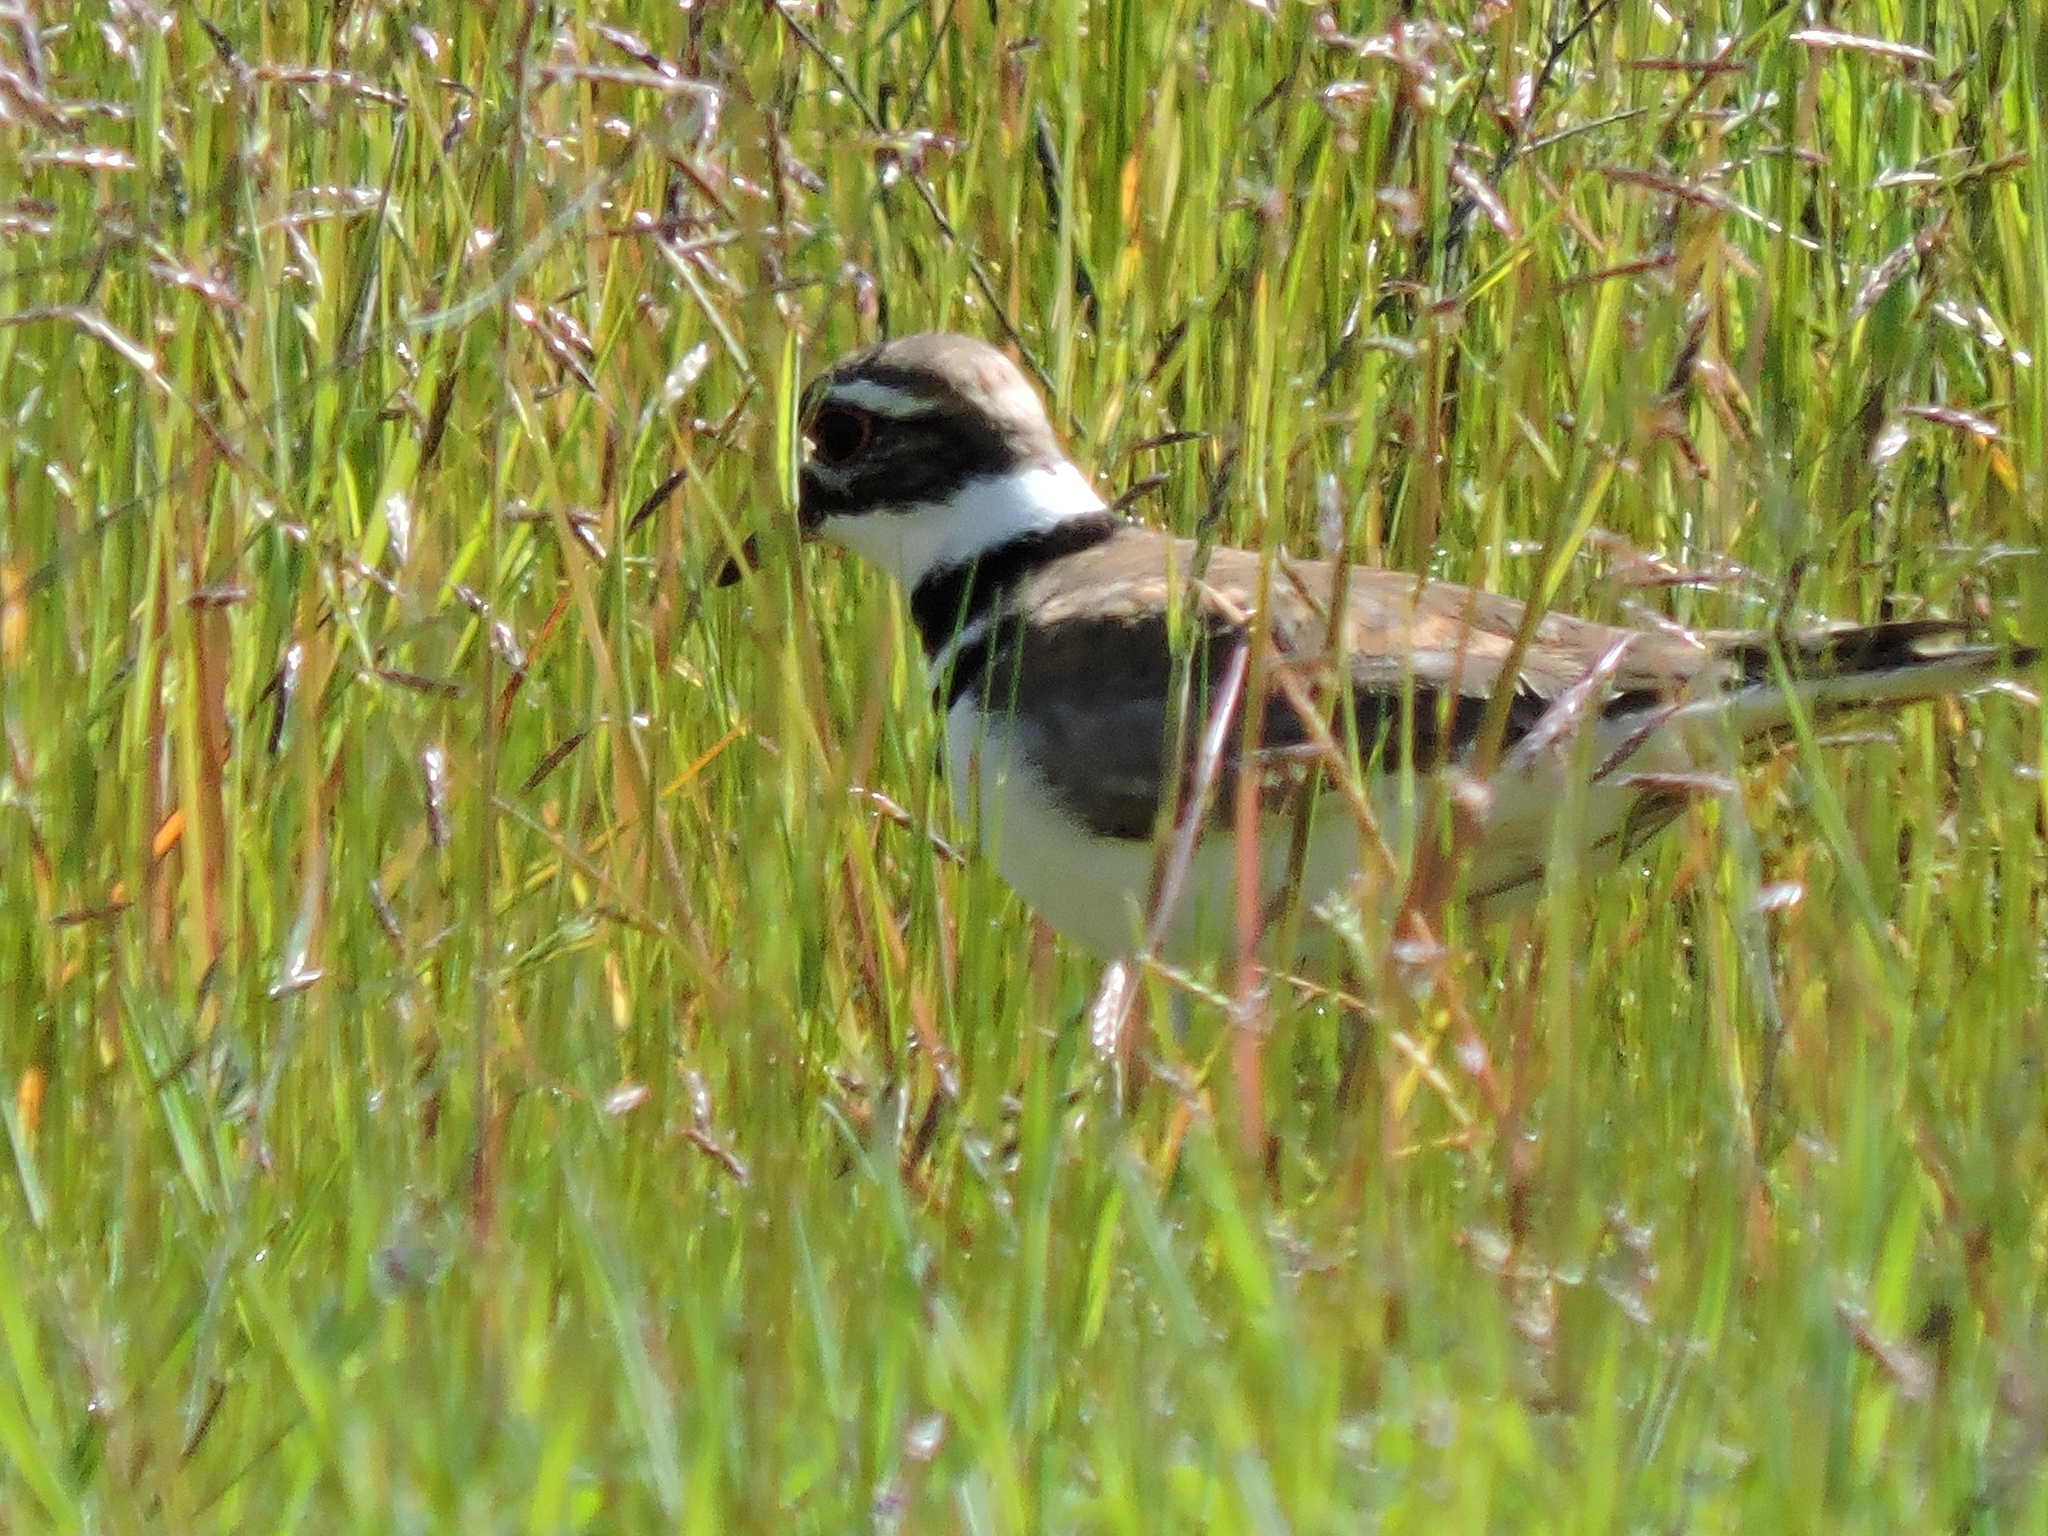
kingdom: Animalia
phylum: Chordata
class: Aves
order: Charadriiformes
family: Charadriidae
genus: Charadrius
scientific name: Charadrius vociferus
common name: Killdeer
